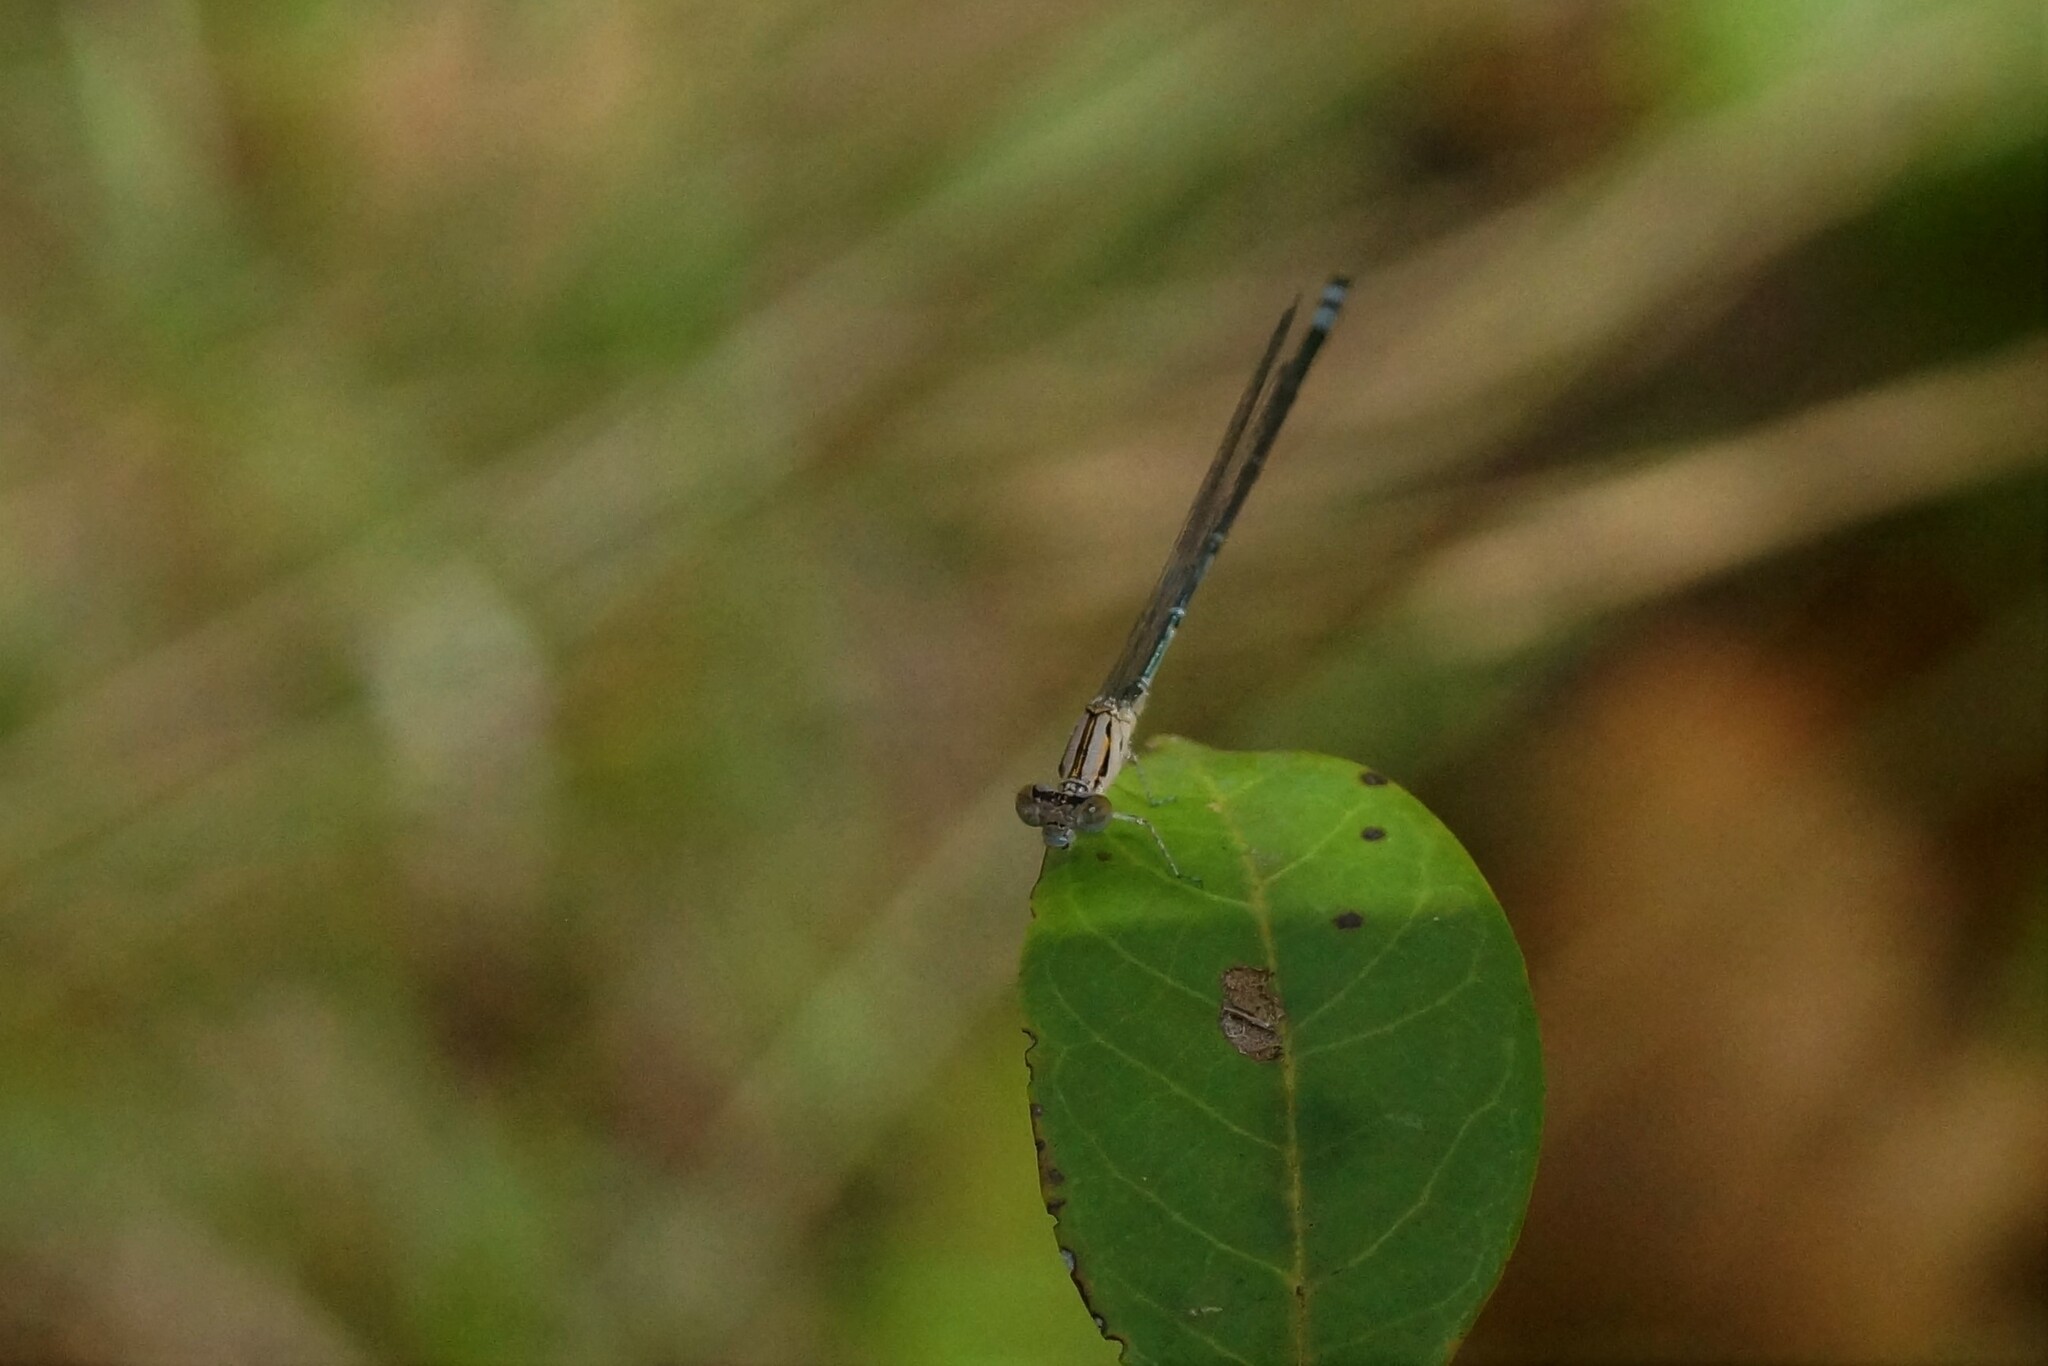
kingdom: Animalia
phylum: Arthropoda
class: Insecta
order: Odonata
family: Coenagrionidae
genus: Pseudagrion
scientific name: Pseudagrion microcephalum
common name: Blue riverdamsel
